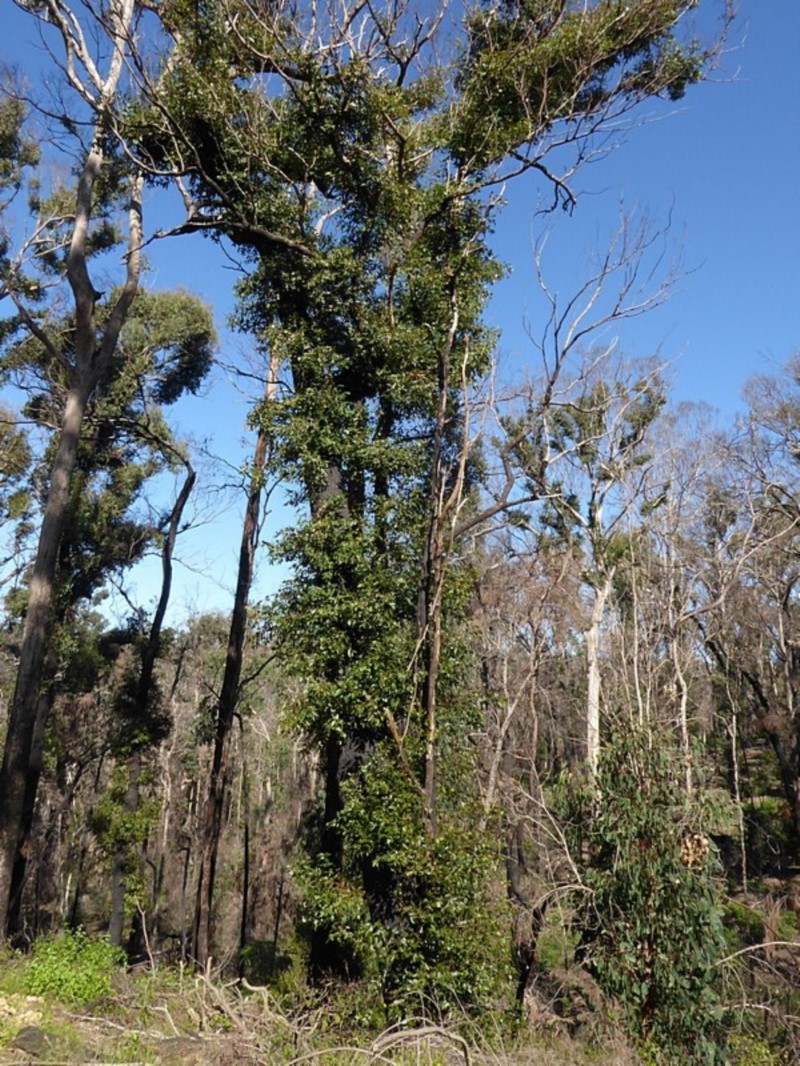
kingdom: Plantae
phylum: Tracheophyta
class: Magnoliopsida
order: Myrtales
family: Myrtaceae
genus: Eucalyptus
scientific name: Eucalyptus muelleriana
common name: Yellow-stringybark
